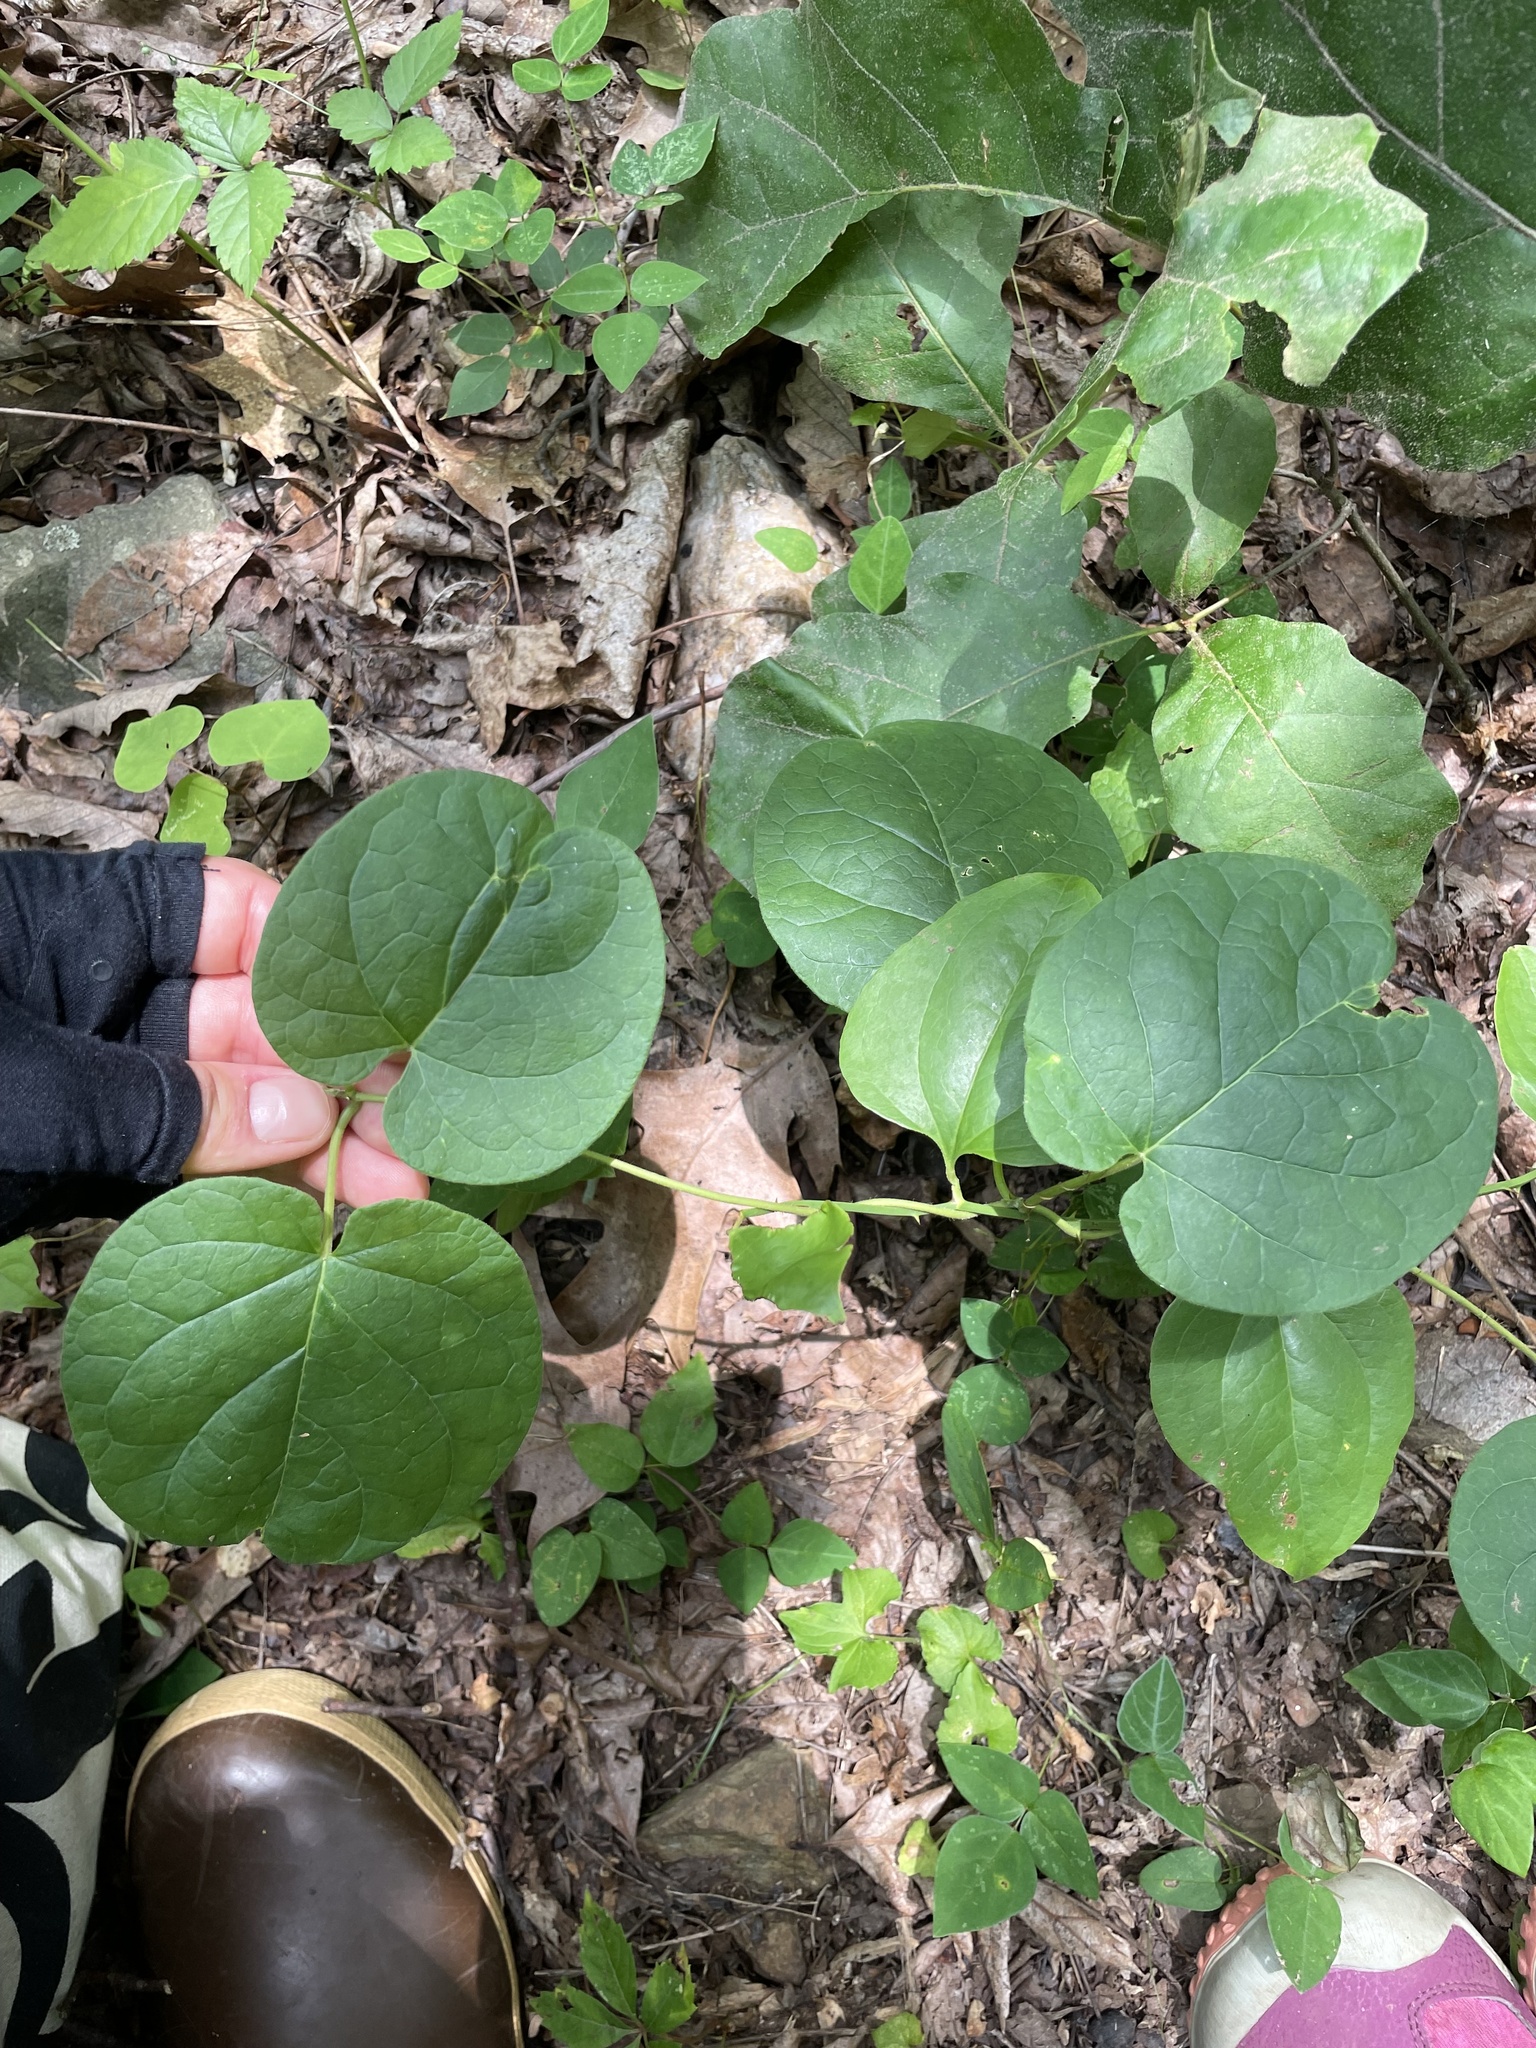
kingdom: Plantae
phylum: Tracheophyta
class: Magnoliopsida
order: Gentianales
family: Apocynaceae
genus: Matelea
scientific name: Matelea obliqua
